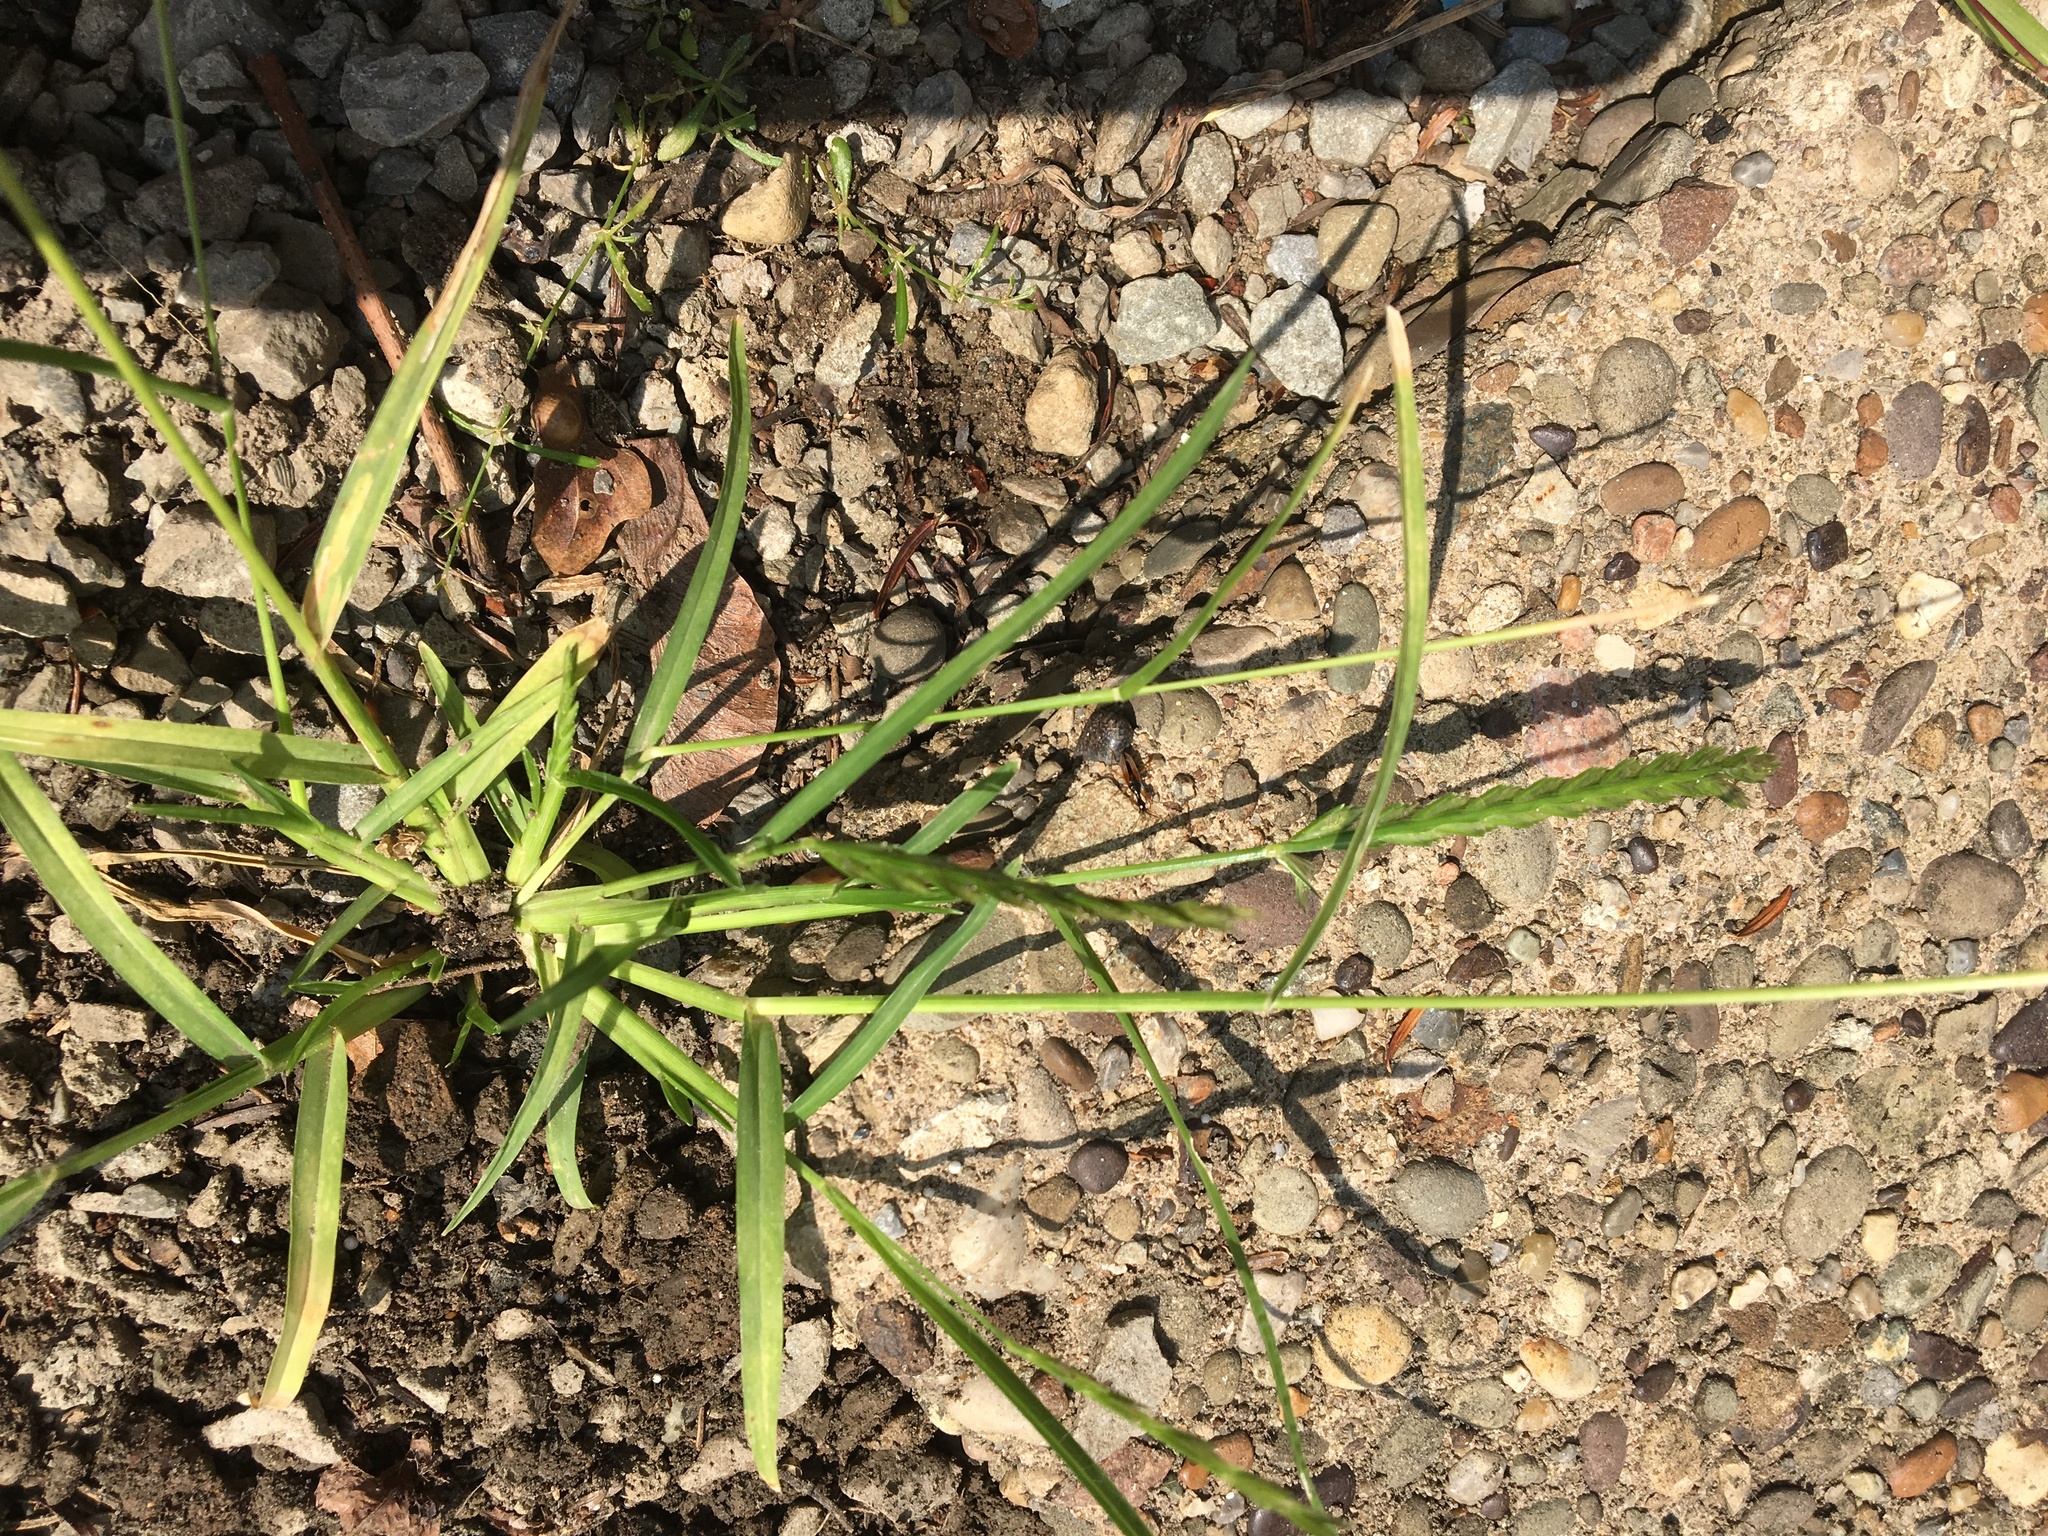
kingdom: Plantae
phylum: Tracheophyta
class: Liliopsida
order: Poales
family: Poaceae
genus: Eleusine
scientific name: Eleusine indica
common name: Yard-grass
